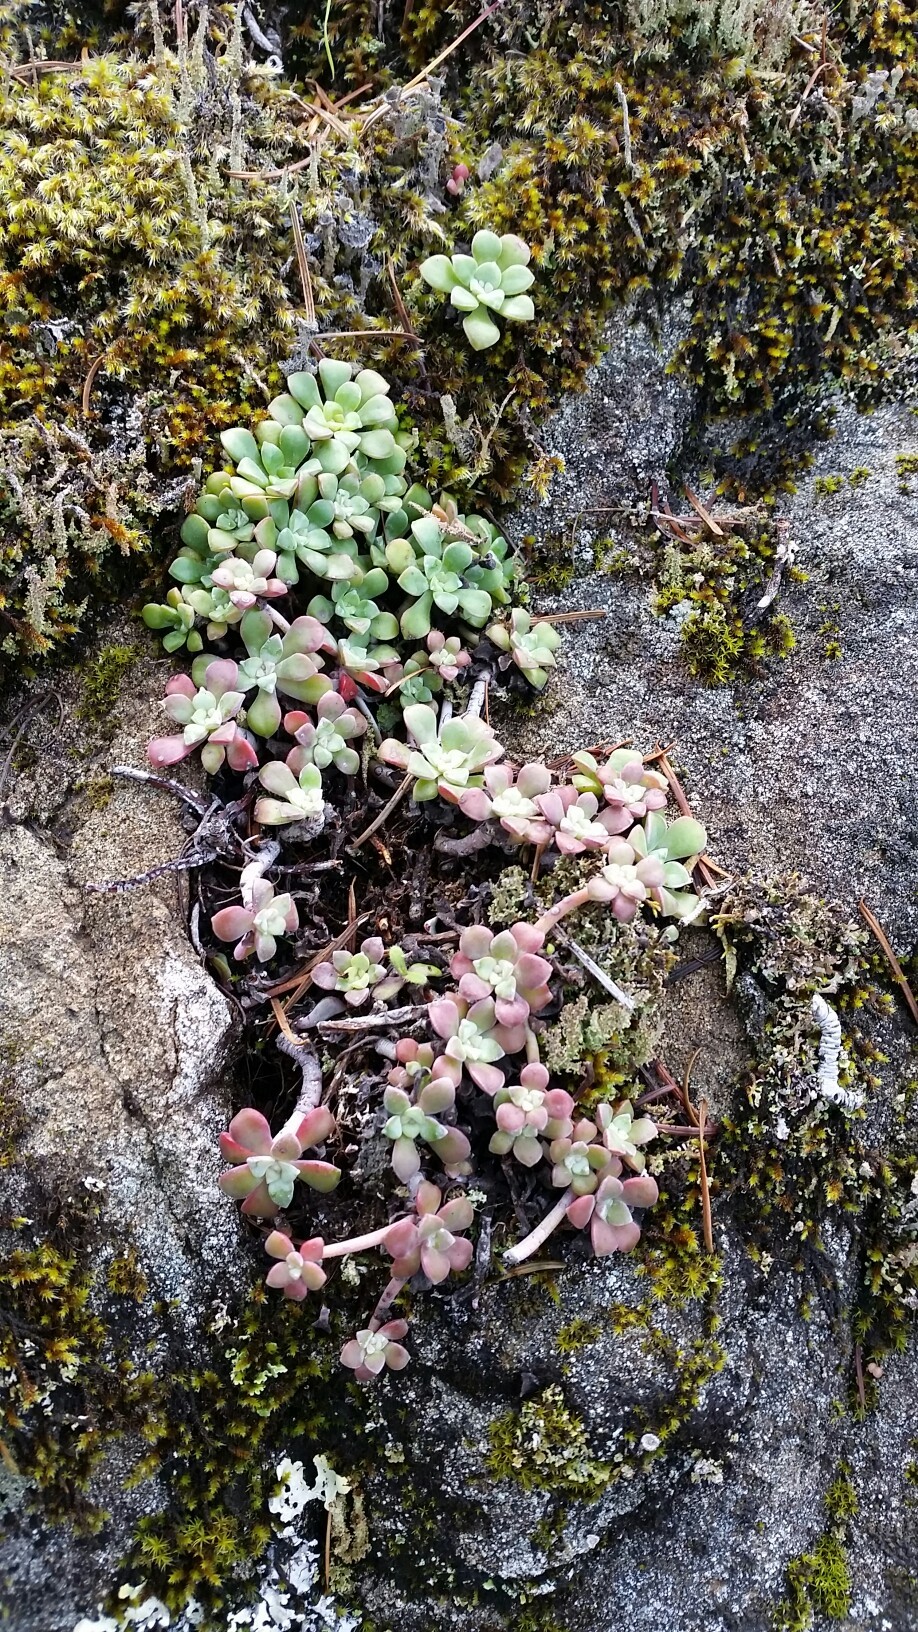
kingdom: Plantae
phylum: Tracheophyta
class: Magnoliopsida
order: Saxifragales
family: Crassulaceae
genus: Sedum
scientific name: Sedum spathulifolium
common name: Colorado stonecrop
